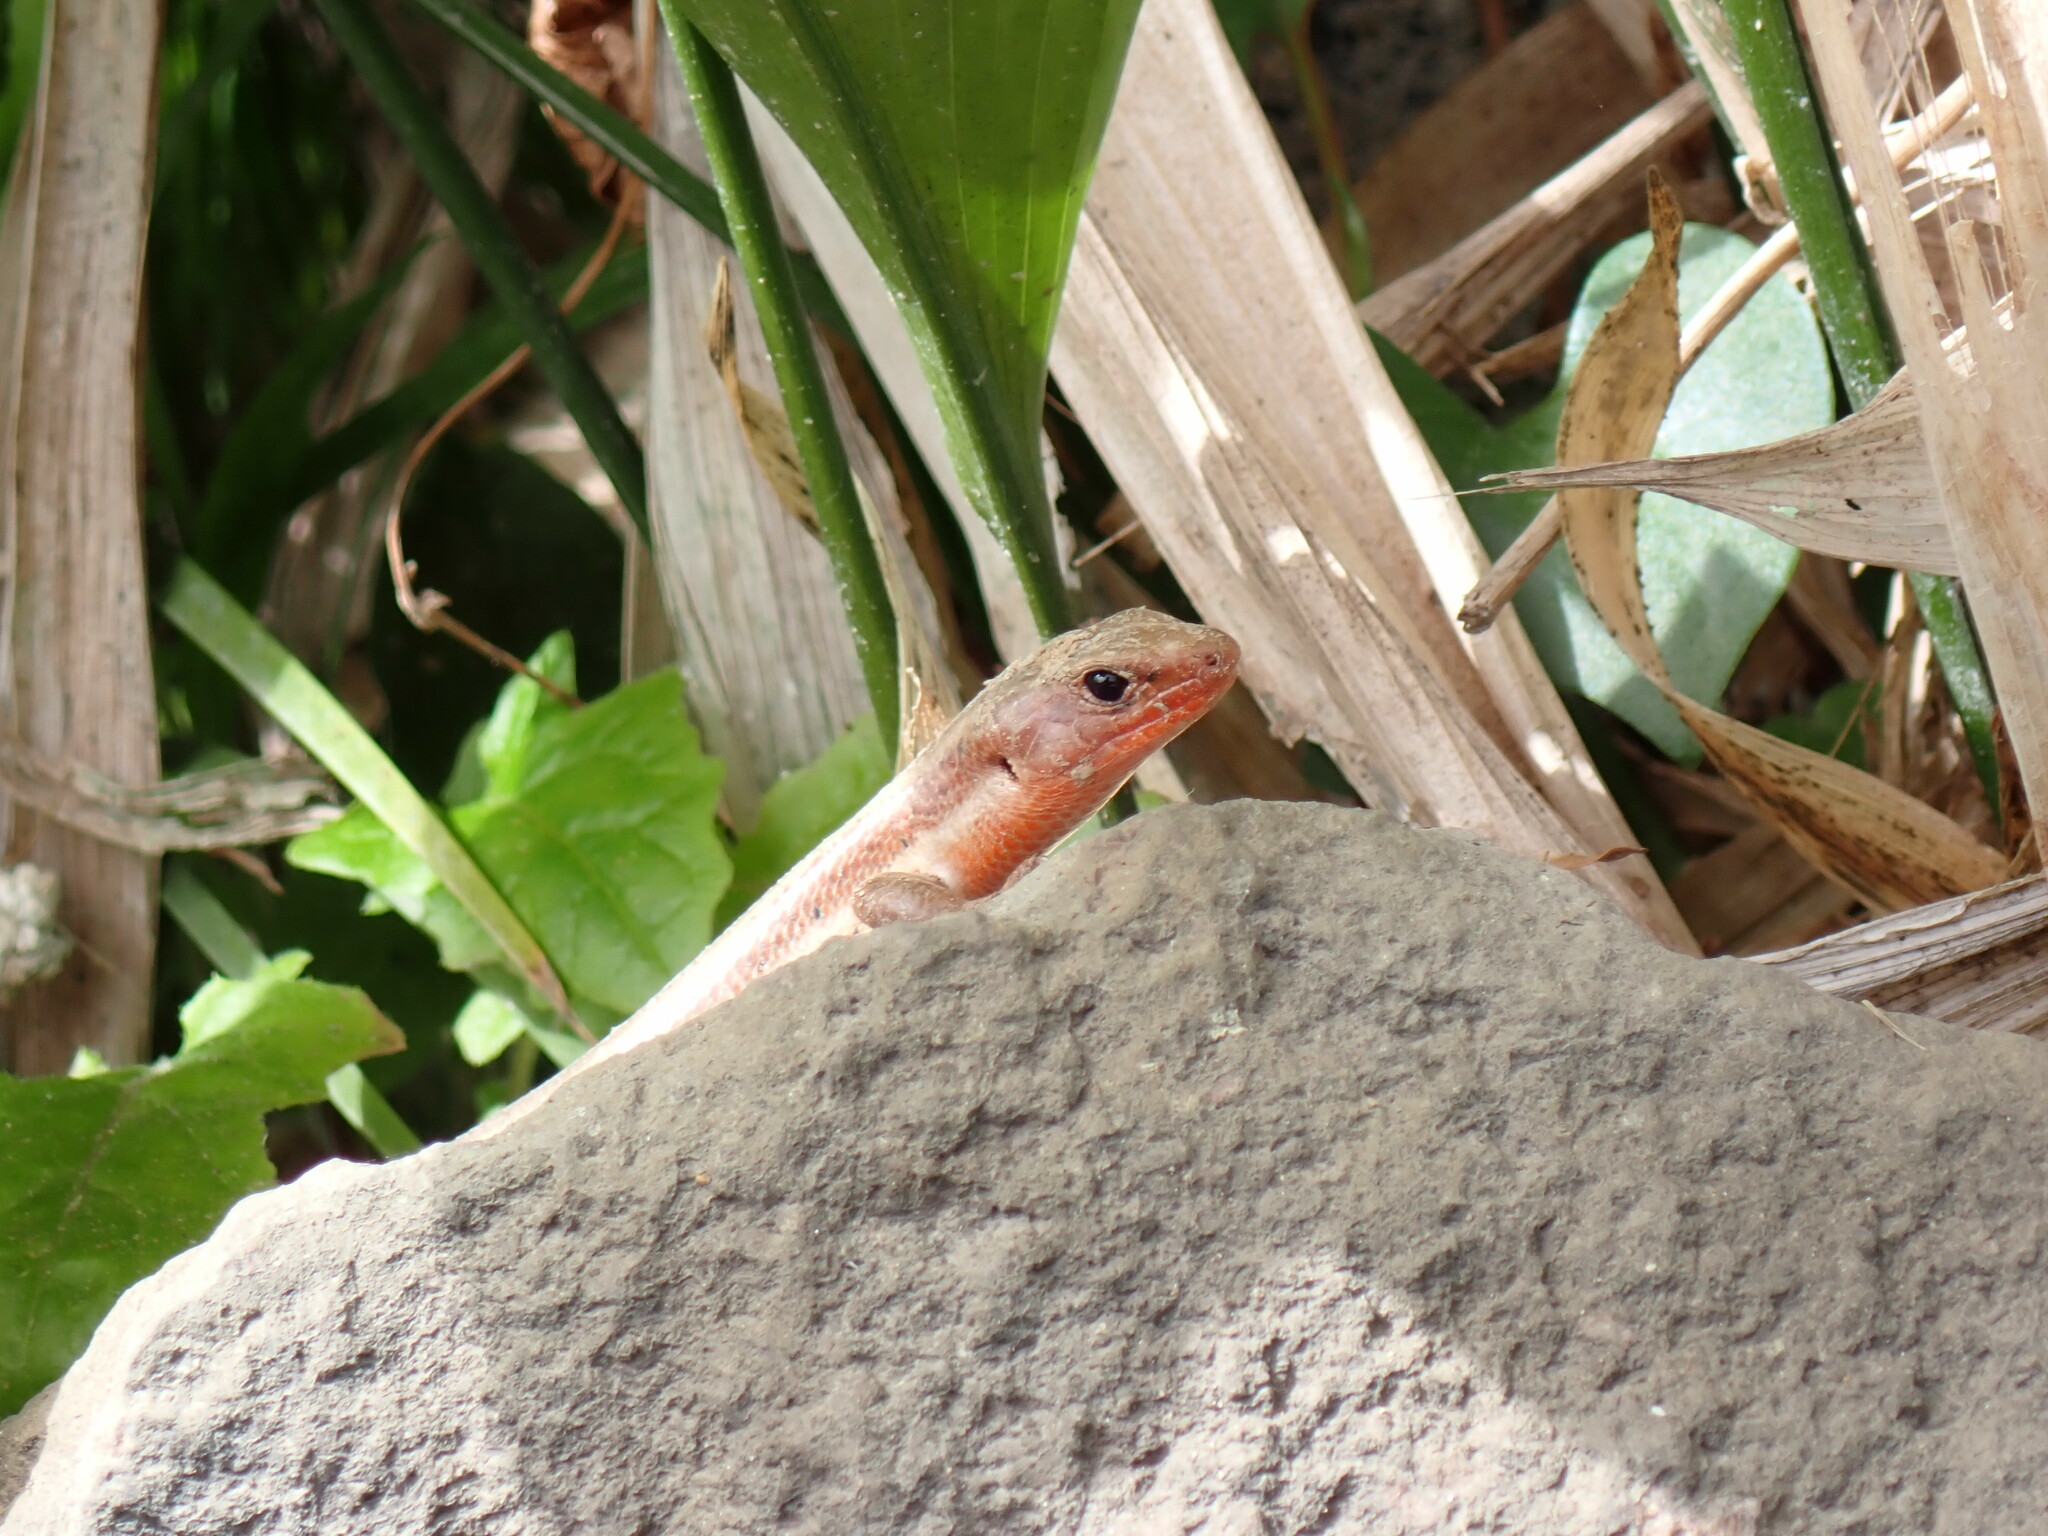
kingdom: Animalia
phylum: Chordata
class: Squamata
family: Scincidae
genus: Plestiodon
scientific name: Plestiodon japonicus
